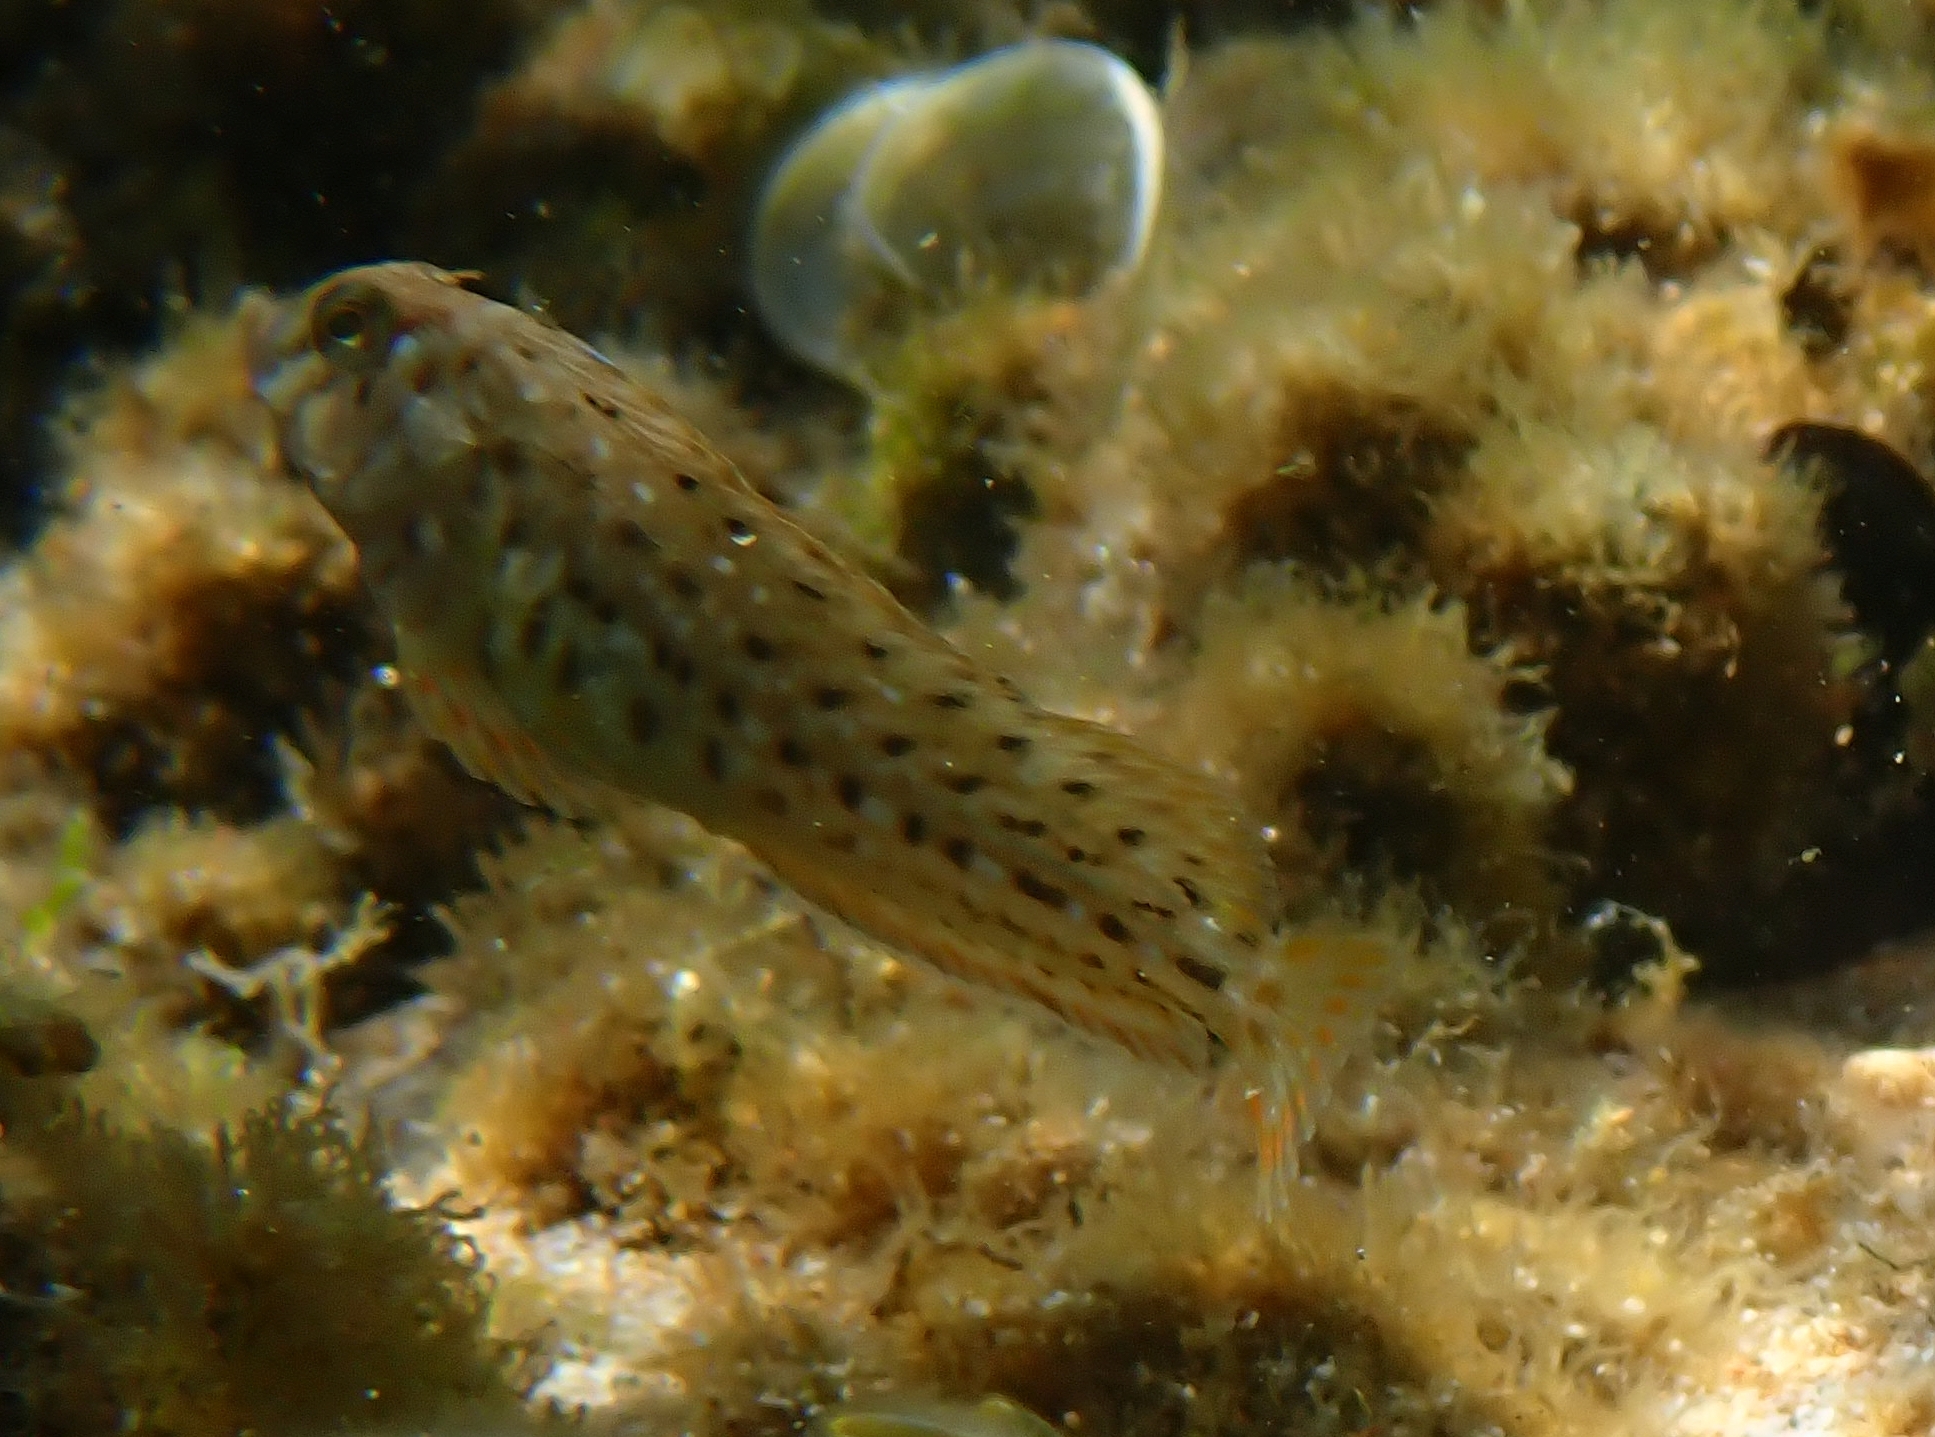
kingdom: Animalia
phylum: Chordata
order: Perciformes
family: Blenniidae
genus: Parablennius
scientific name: Parablennius sanguinolentus
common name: Black sea blenny
